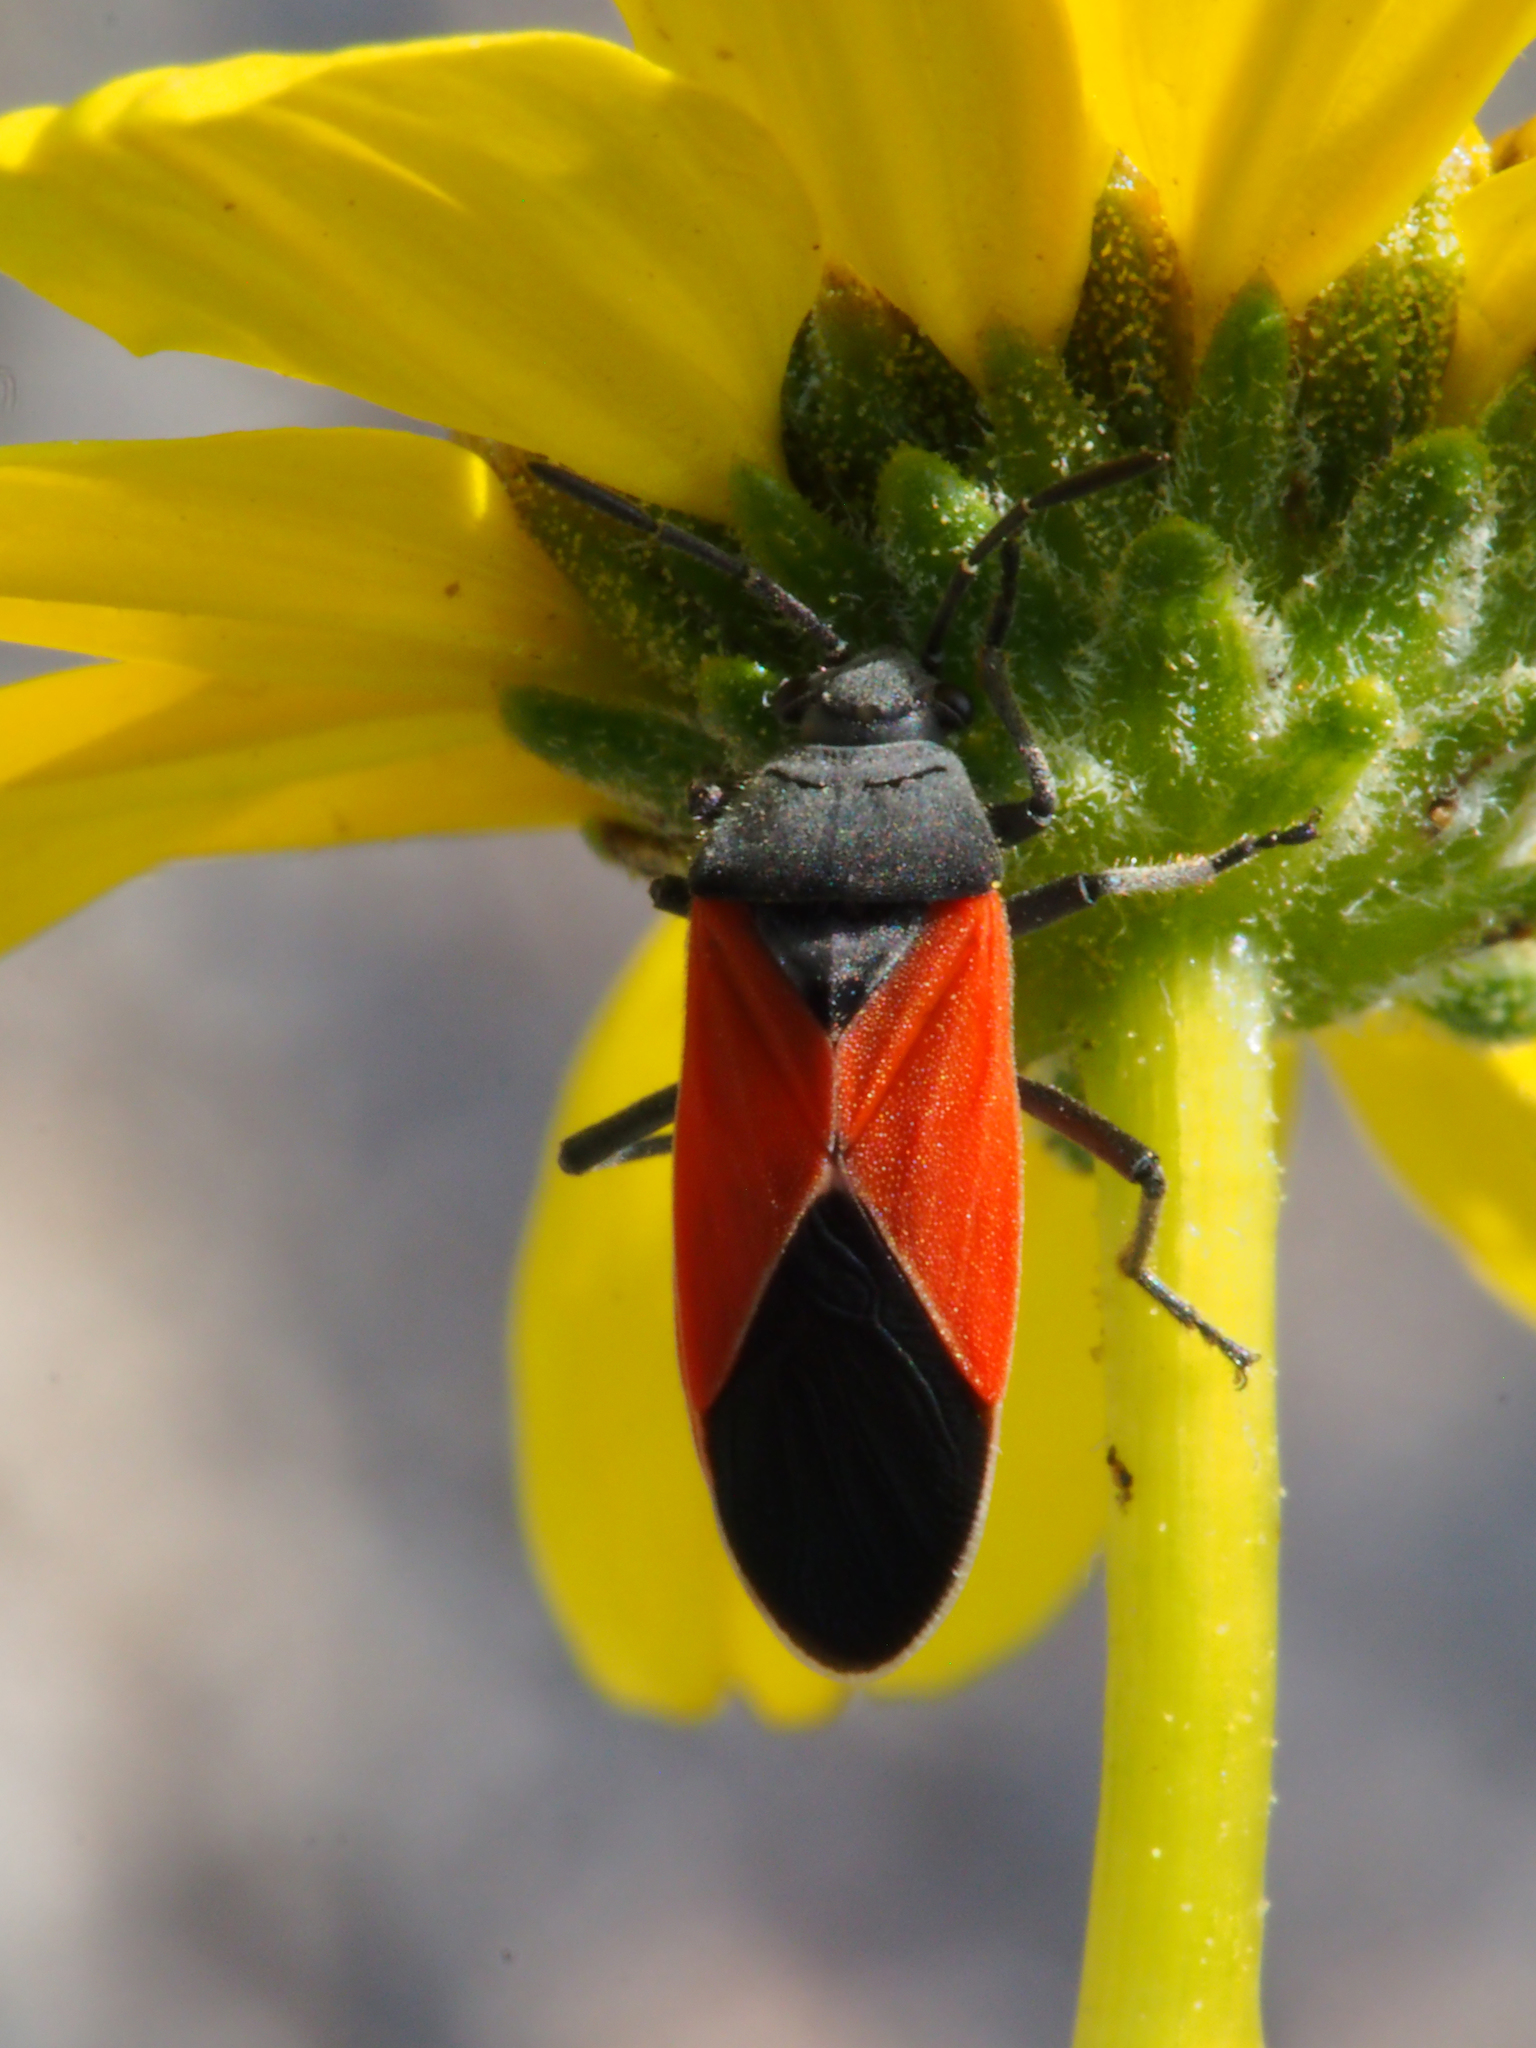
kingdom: Animalia
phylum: Arthropoda
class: Insecta
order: Hemiptera
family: Lygaeidae
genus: Melanopleurus
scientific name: Melanopleurus belfragei
